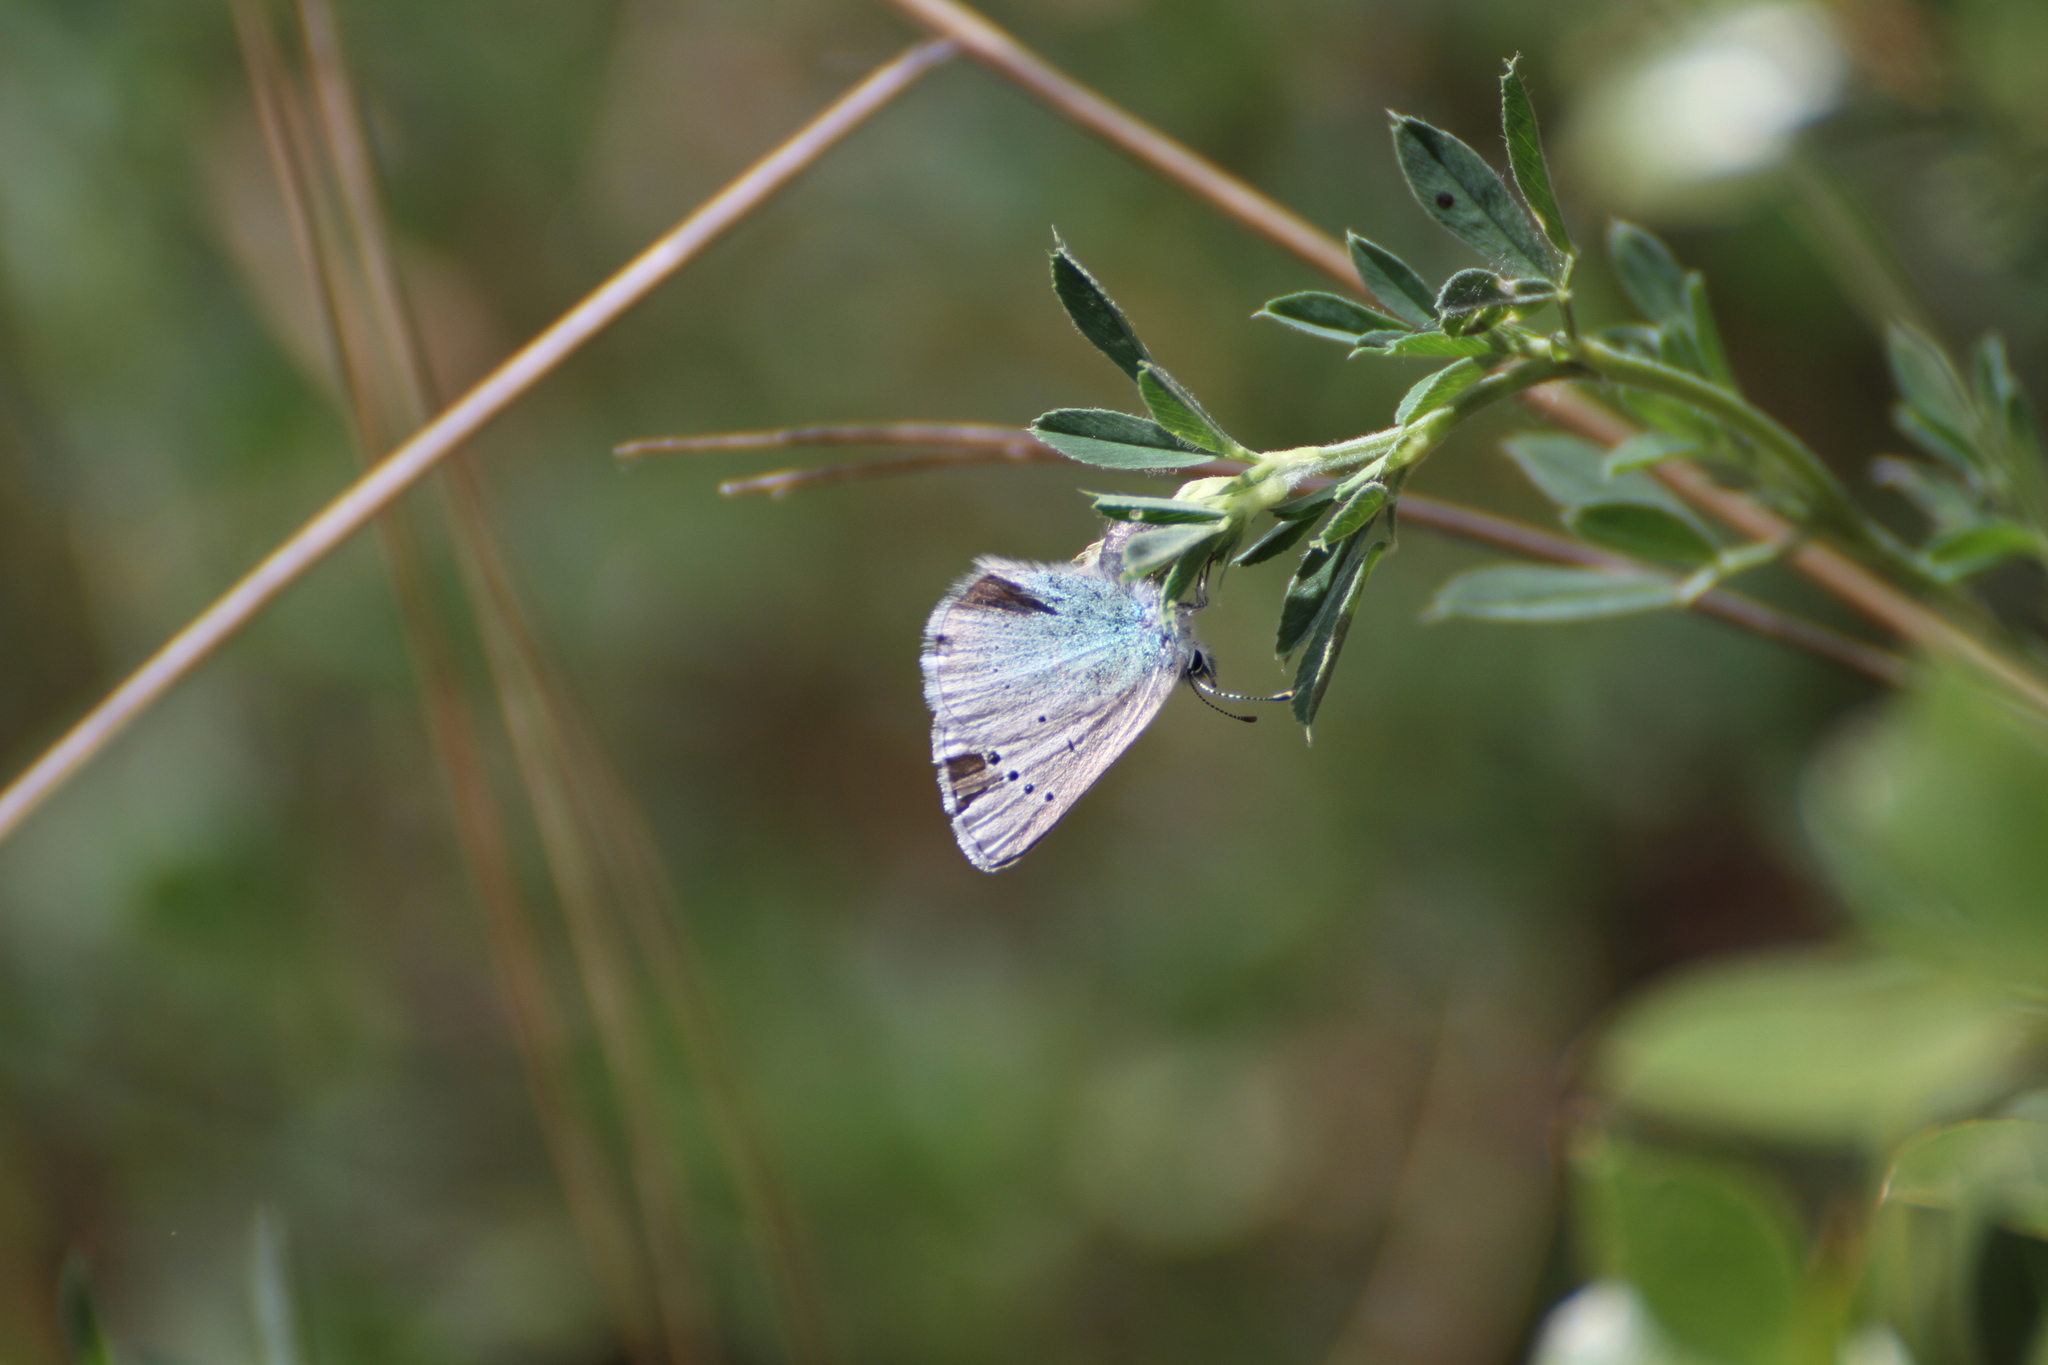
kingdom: Animalia
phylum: Arthropoda
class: Insecta
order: Lepidoptera
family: Lycaenidae
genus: Glaucopsyche
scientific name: Glaucopsyche alexis
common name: Green-underside blue
